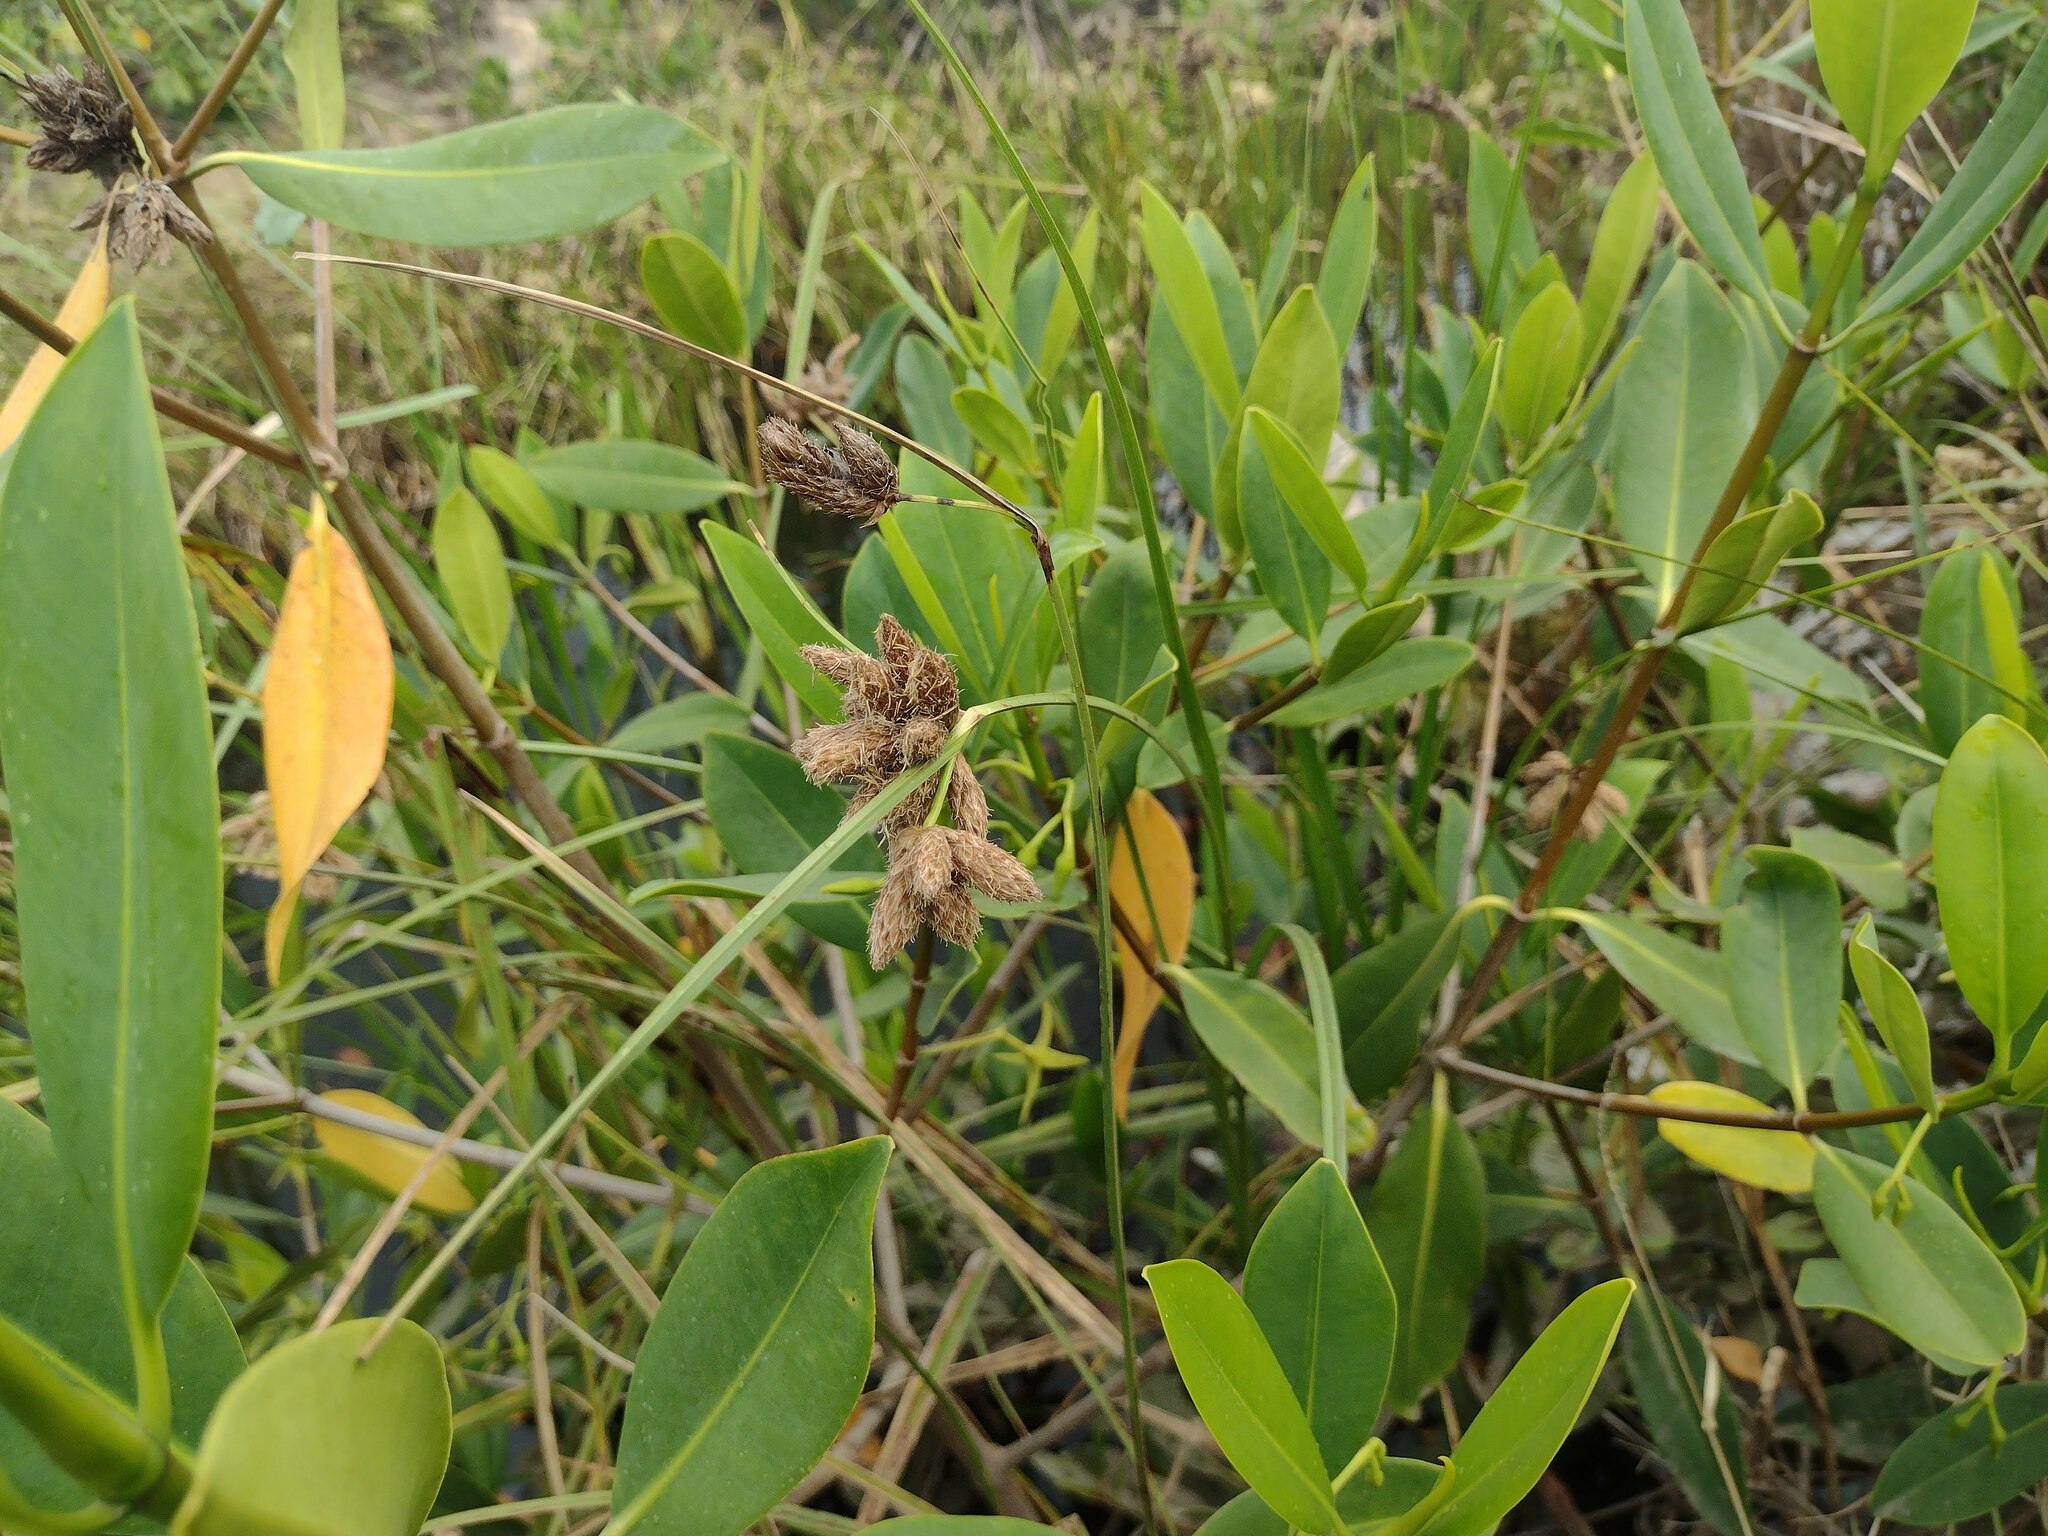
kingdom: Plantae
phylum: Tracheophyta
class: Liliopsida
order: Poales
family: Cyperaceae
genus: Bolboschoenus
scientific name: Bolboschoenus maritimus
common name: Sea club-rush
